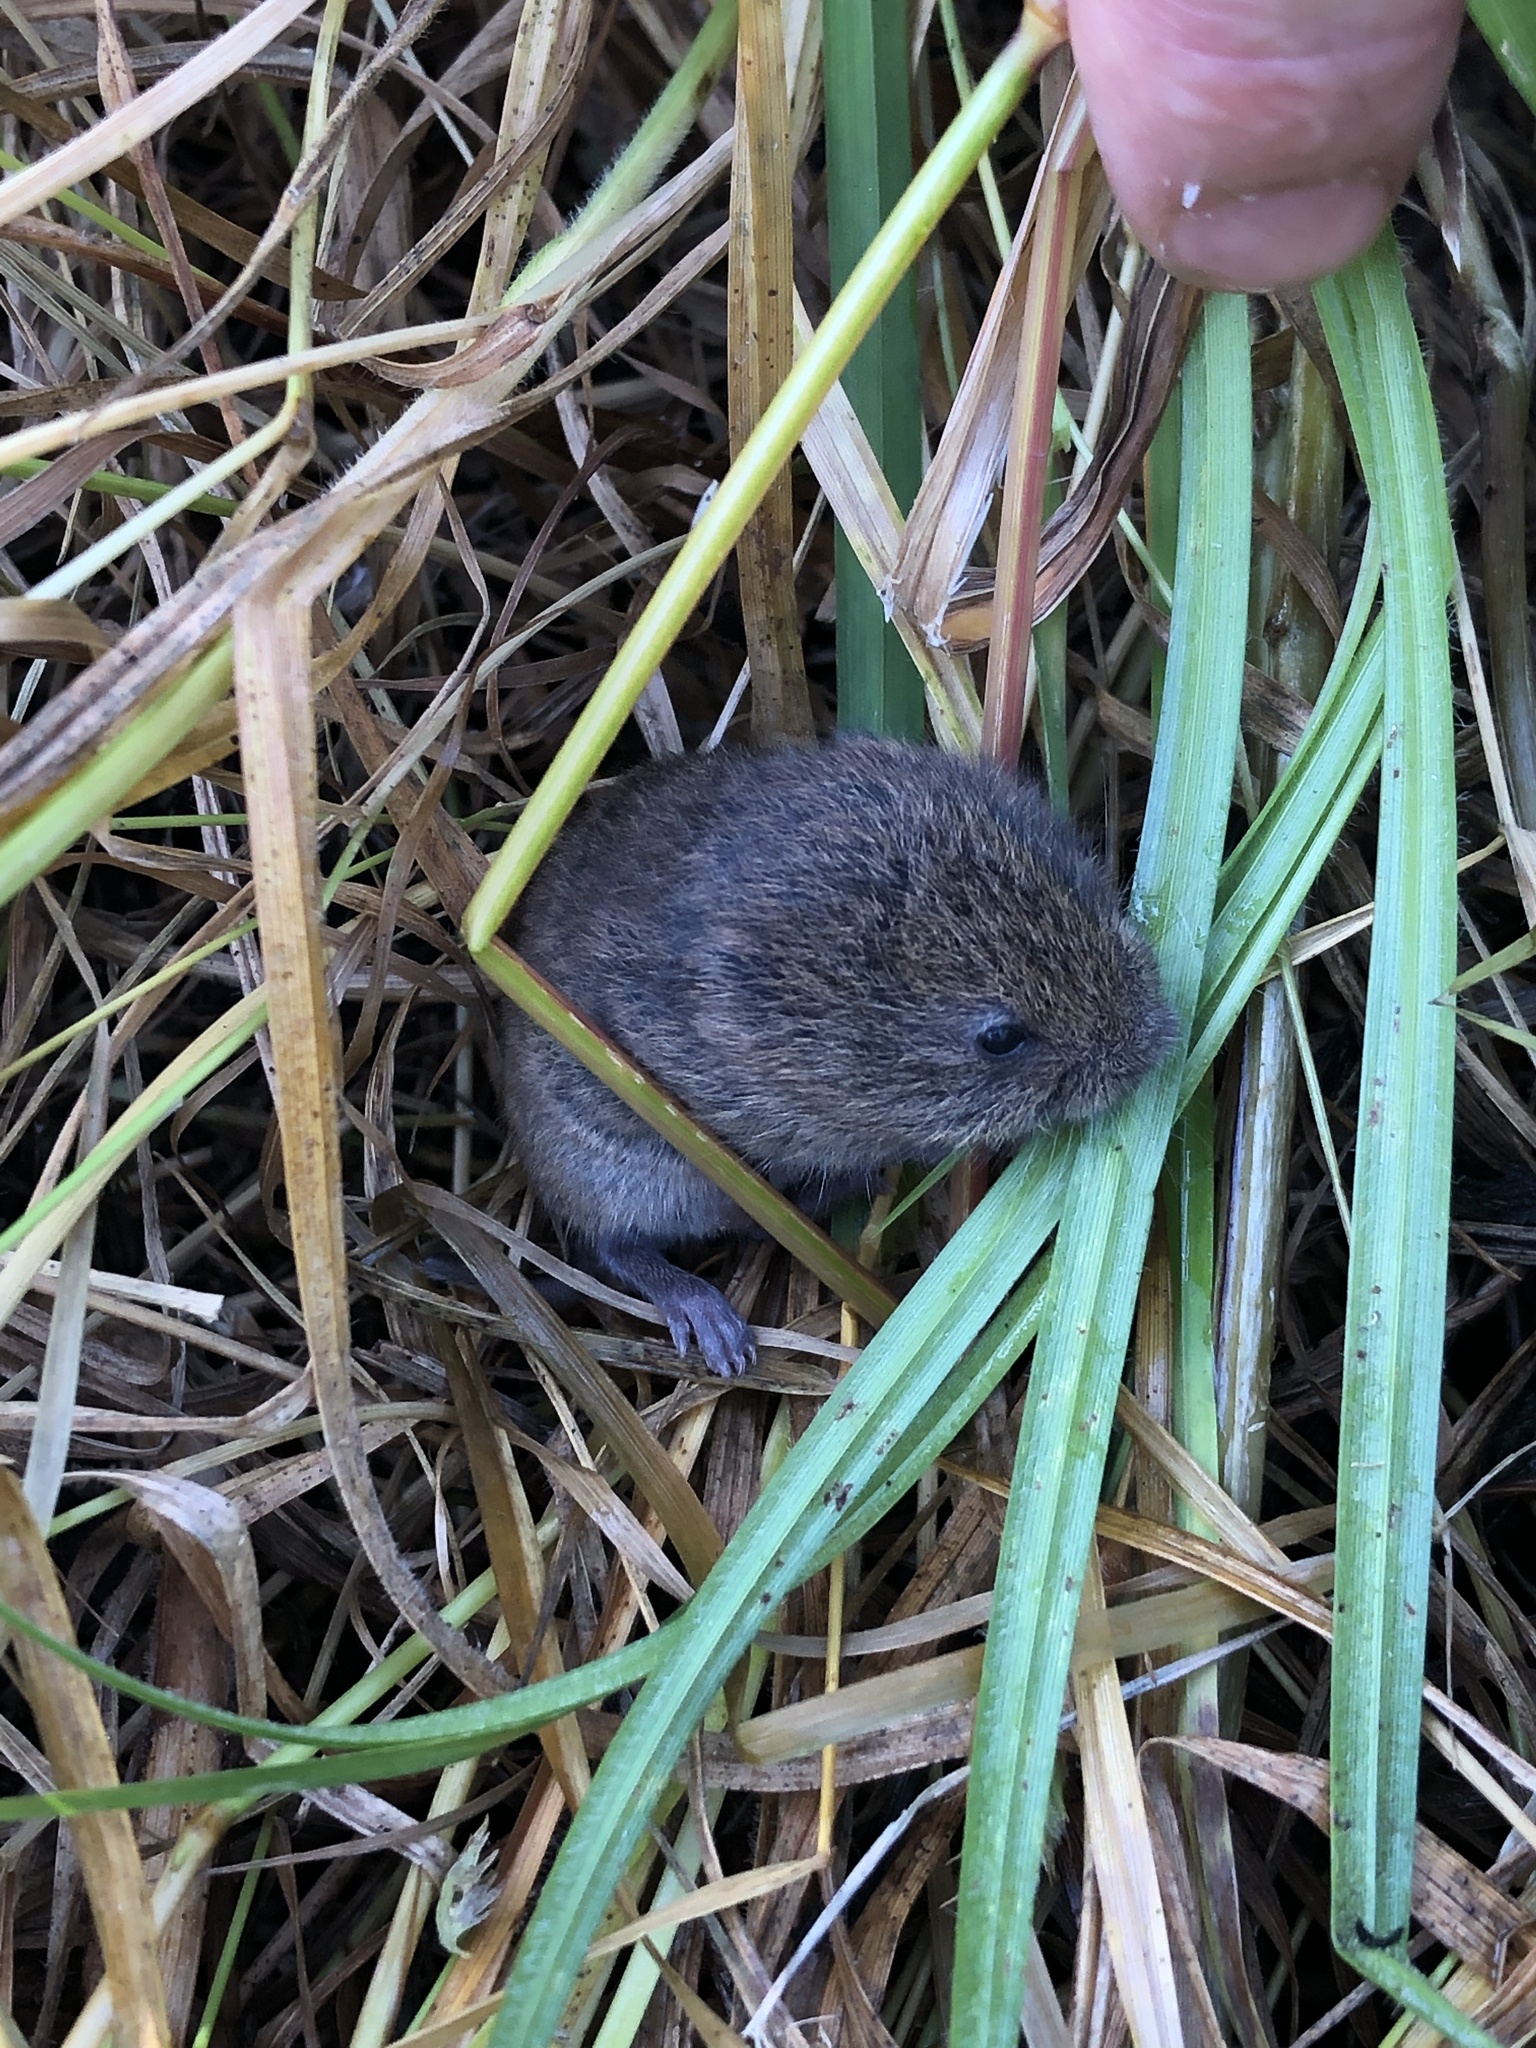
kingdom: Animalia
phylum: Chordata
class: Mammalia
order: Rodentia
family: Cricetidae
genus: Microtus
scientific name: Microtus agrestis
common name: Field vole
